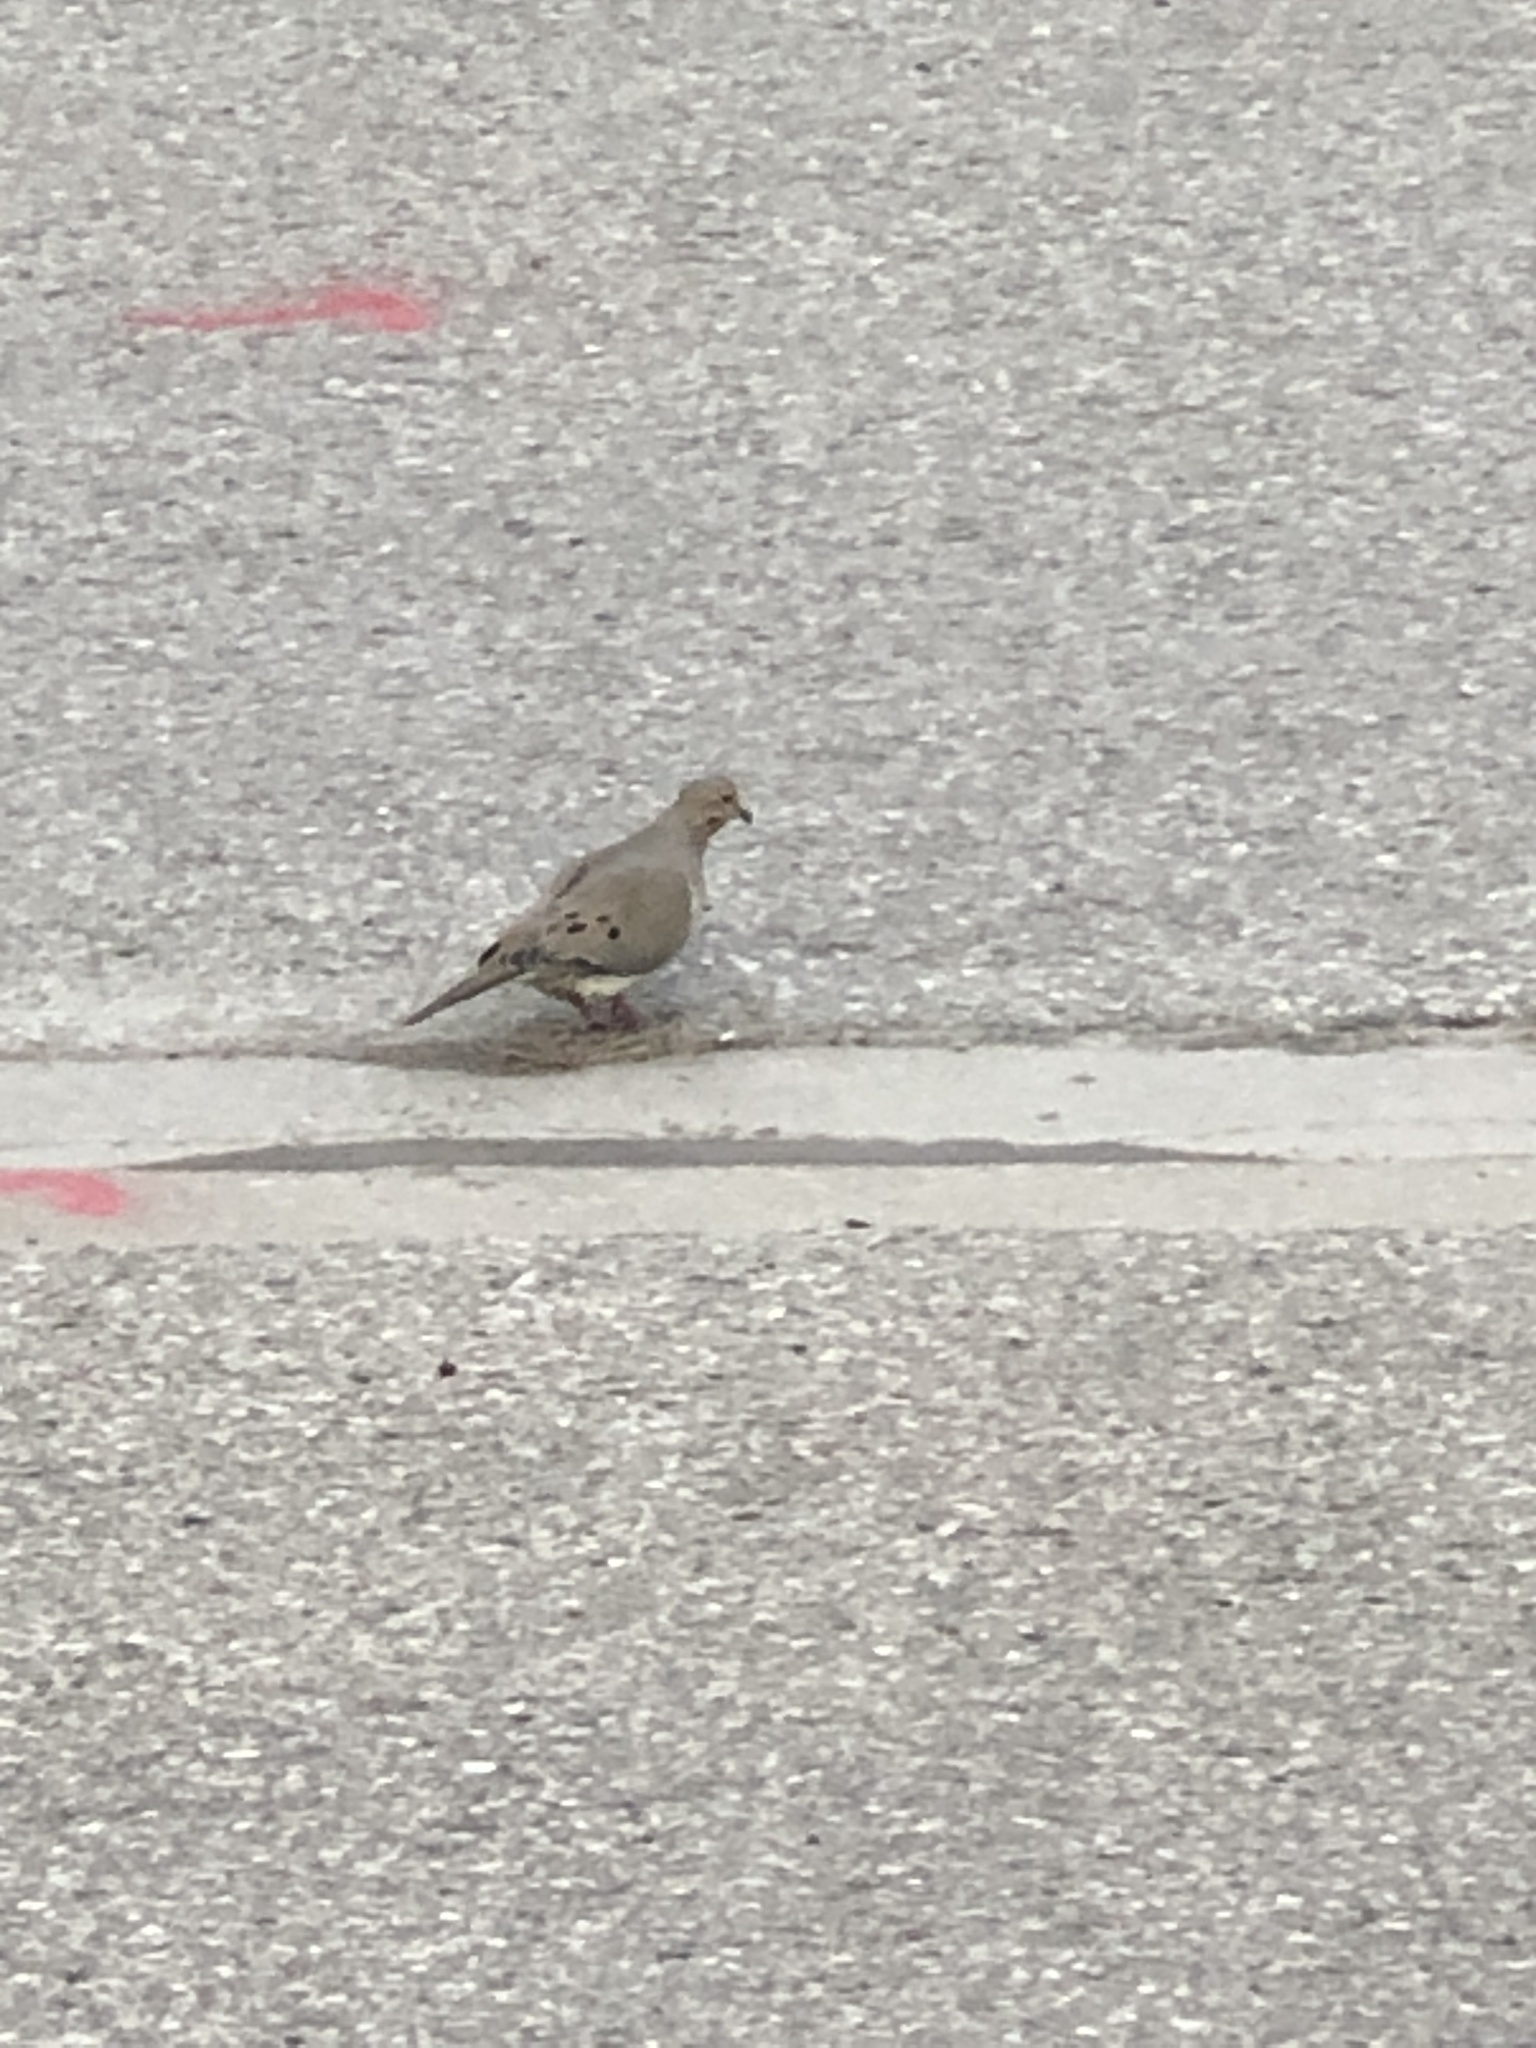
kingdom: Animalia
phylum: Chordata
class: Aves
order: Columbiformes
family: Columbidae
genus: Zenaida
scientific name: Zenaida macroura
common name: Mourning dove
